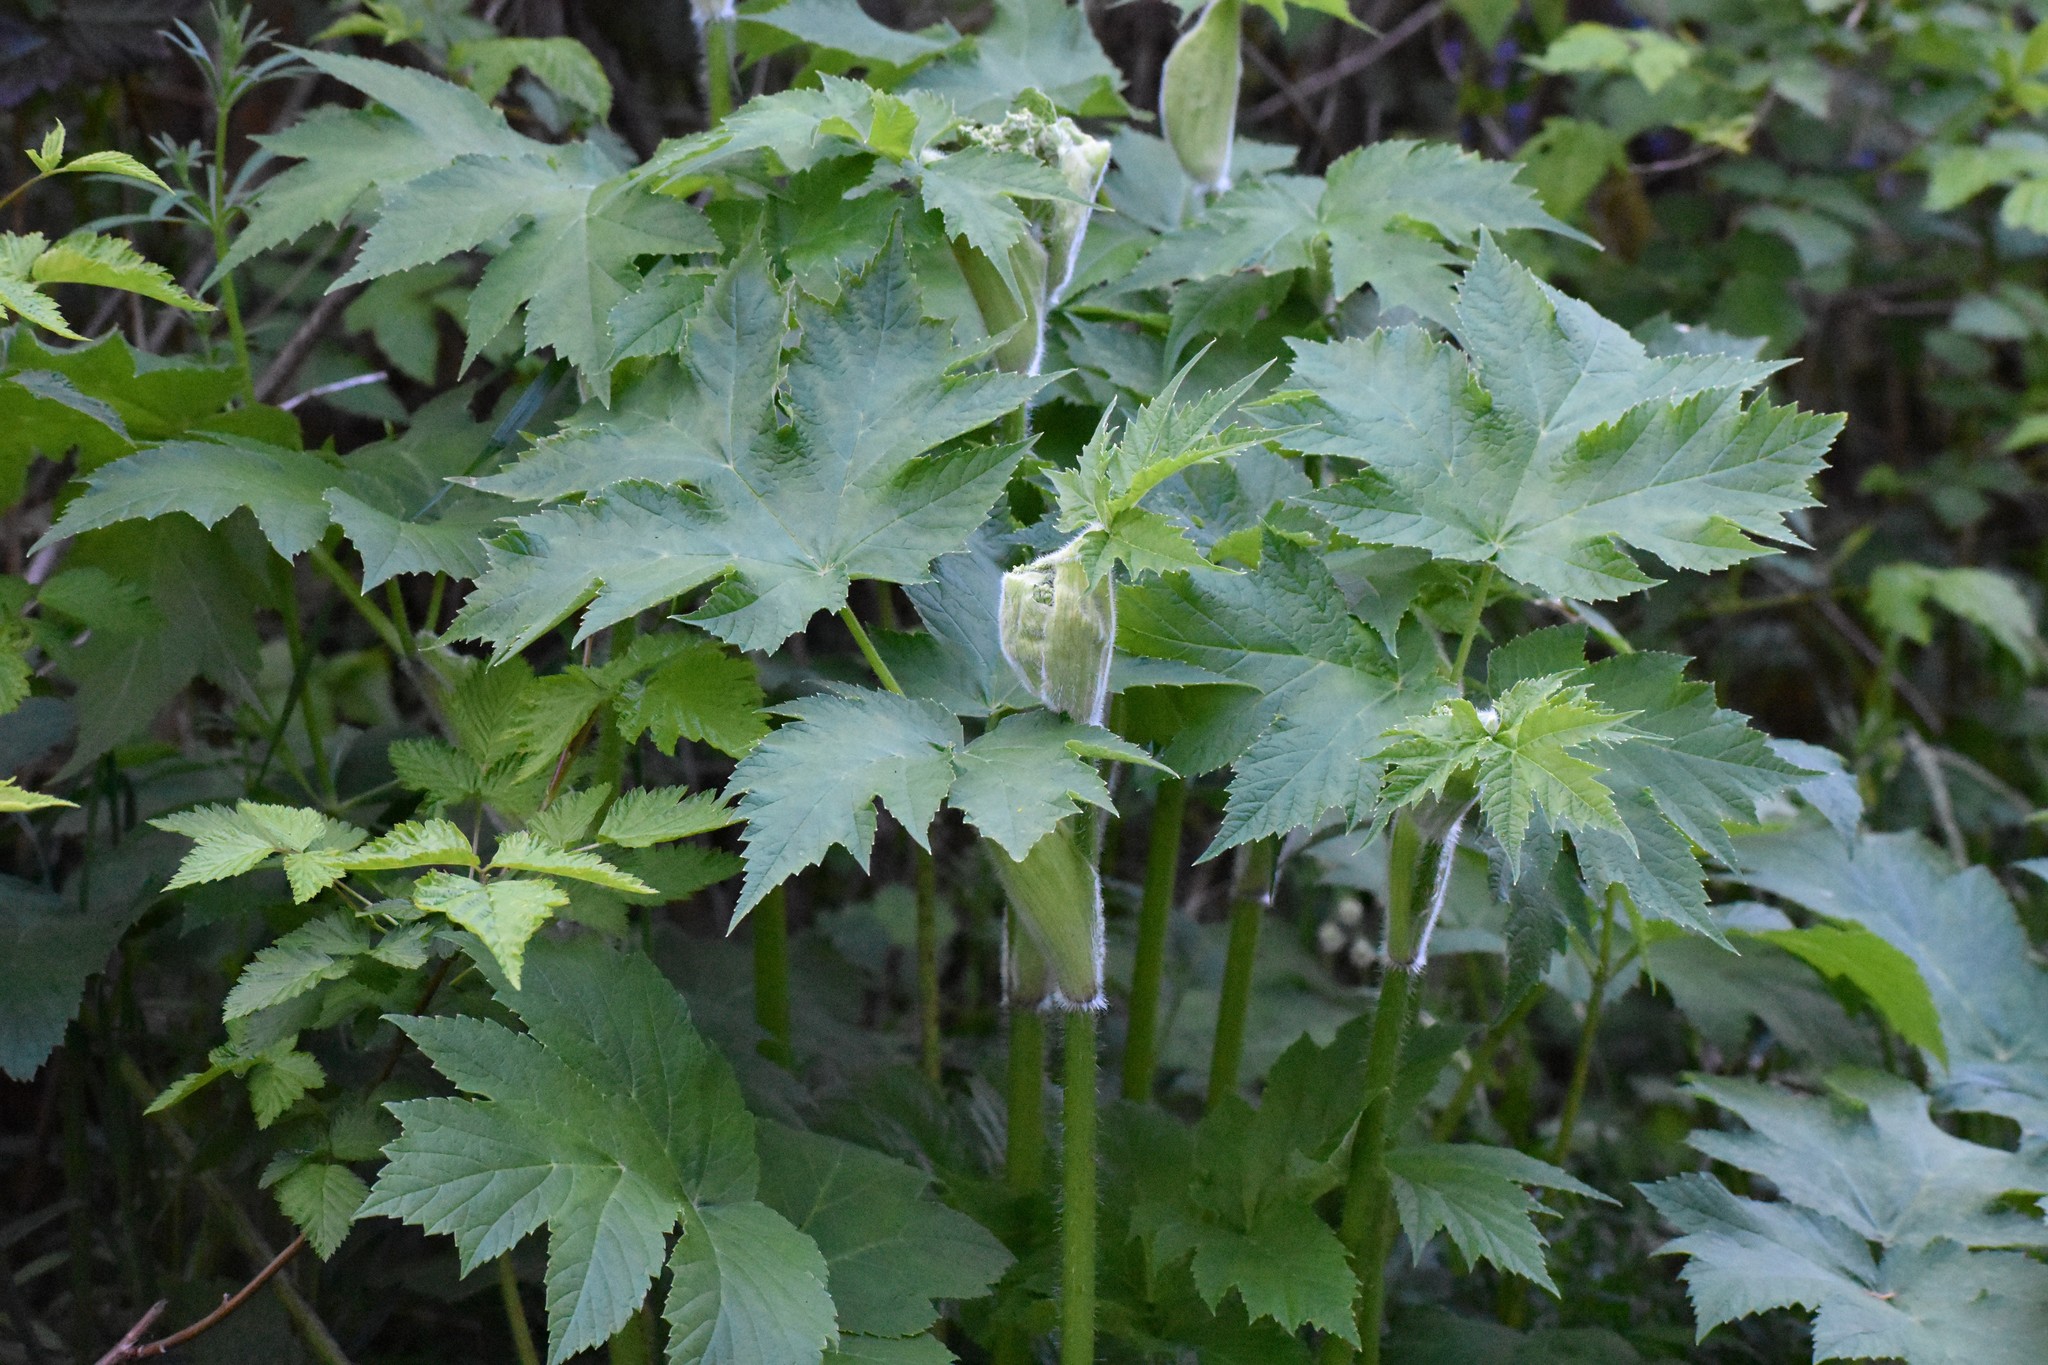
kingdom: Plantae
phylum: Tracheophyta
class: Magnoliopsida
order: Apiales
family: Apiaceae
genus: Heracleum
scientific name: Heracleum maximum
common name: American cow parsnip
